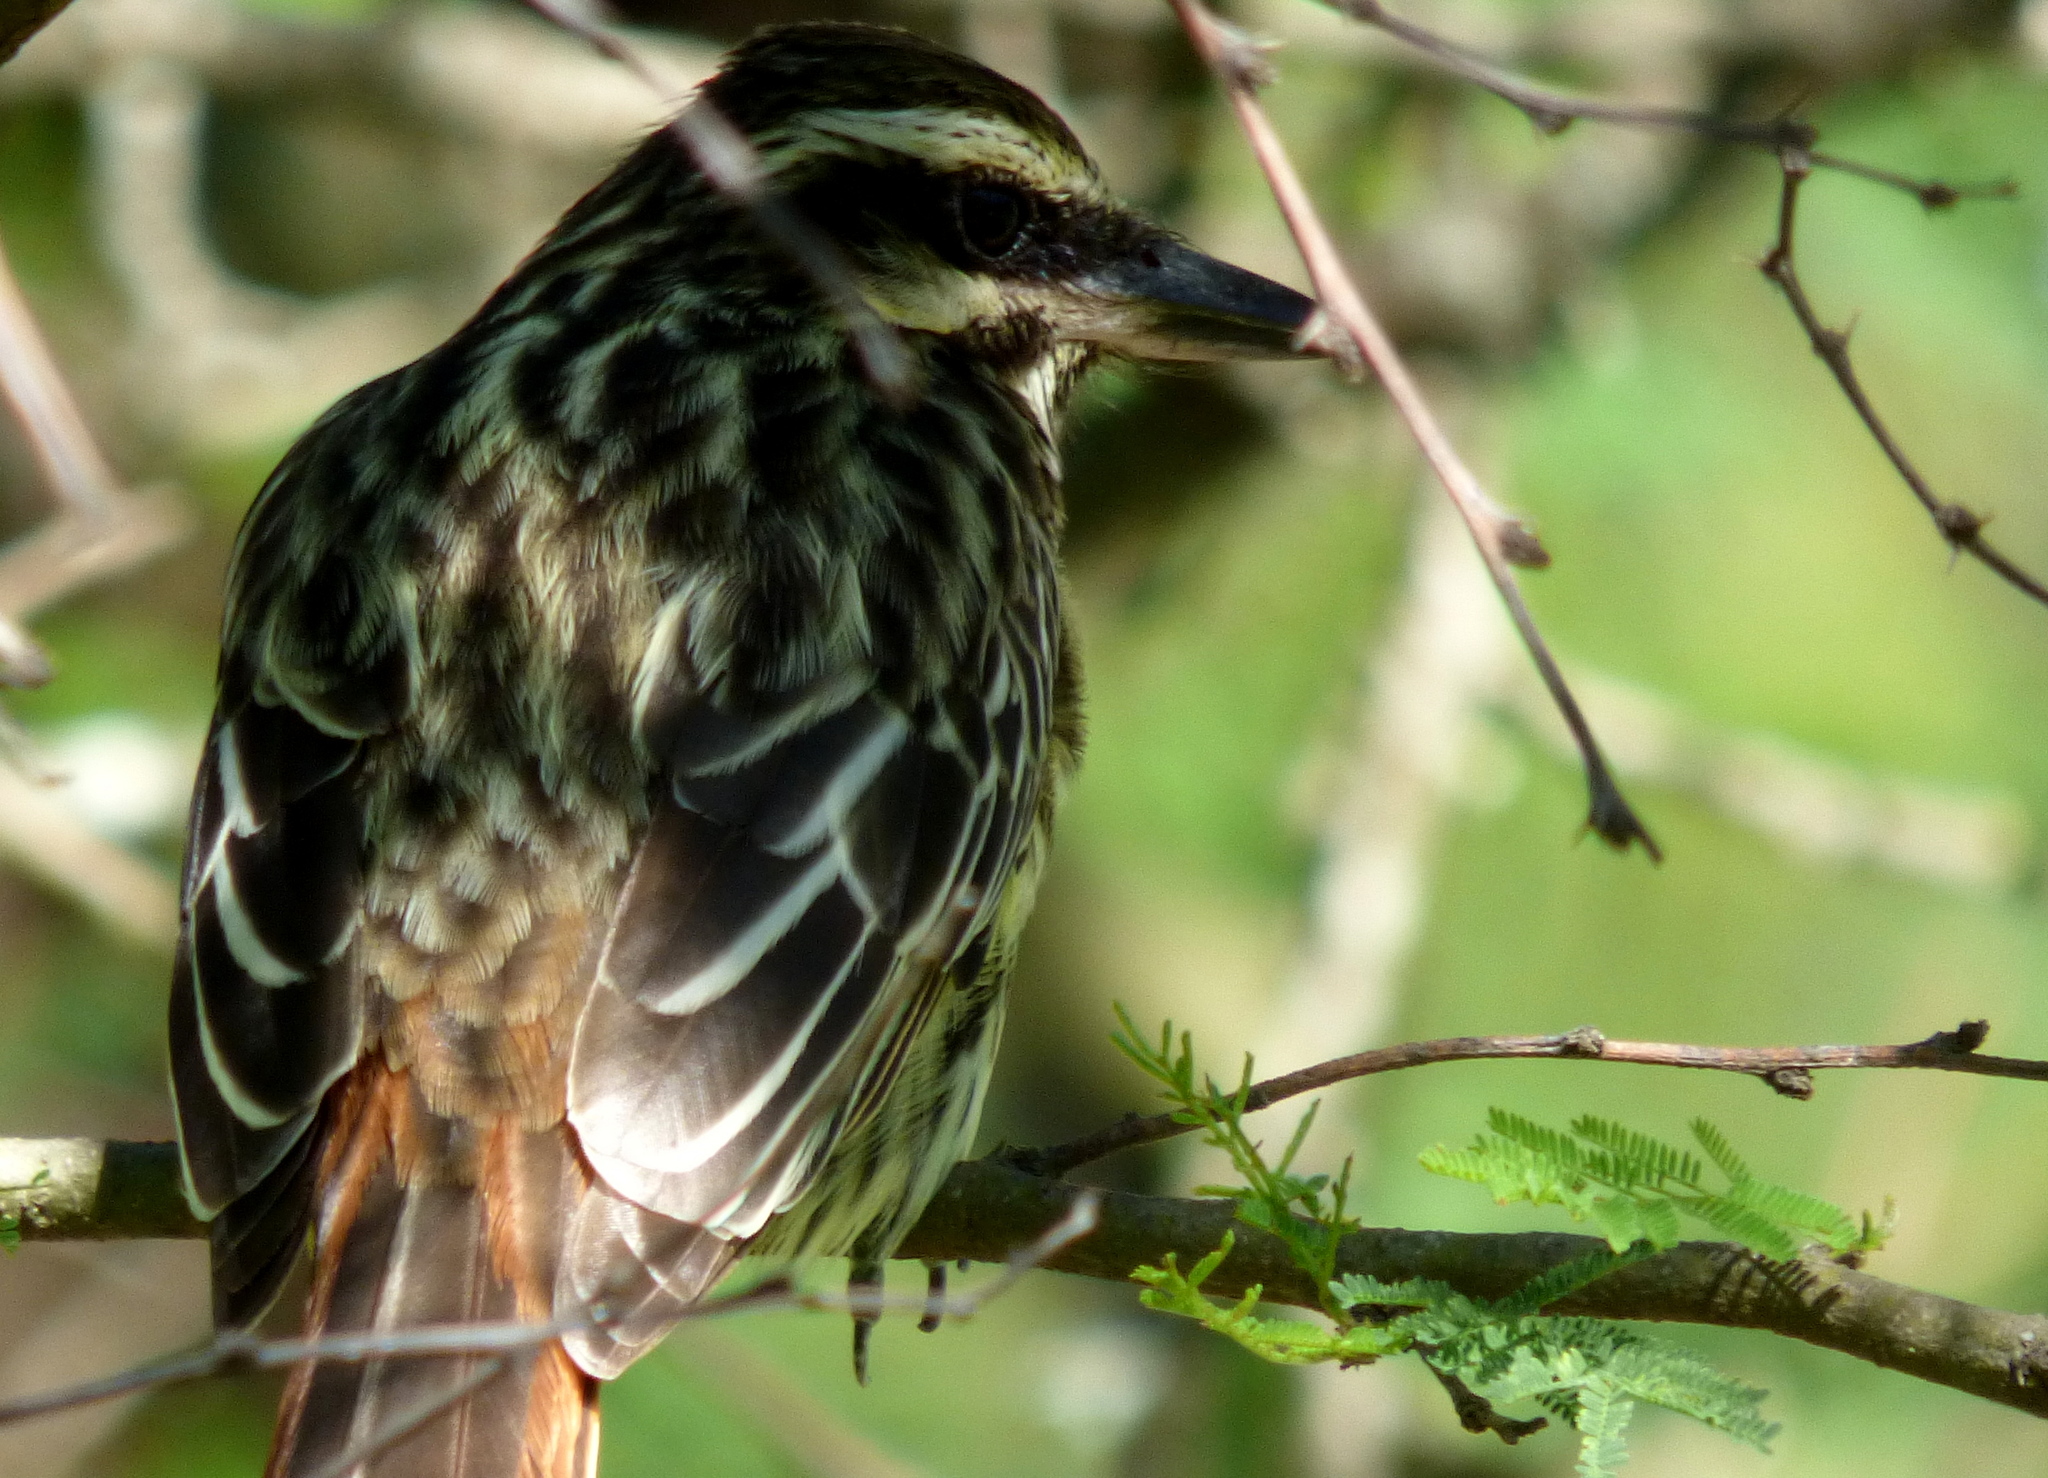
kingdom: Animalia
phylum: Chordata
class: Aves
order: Passeriformes
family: Tyrannidae
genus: Myiodynastes
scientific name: Myiodynastes maculatus
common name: Streaked flycatcher
